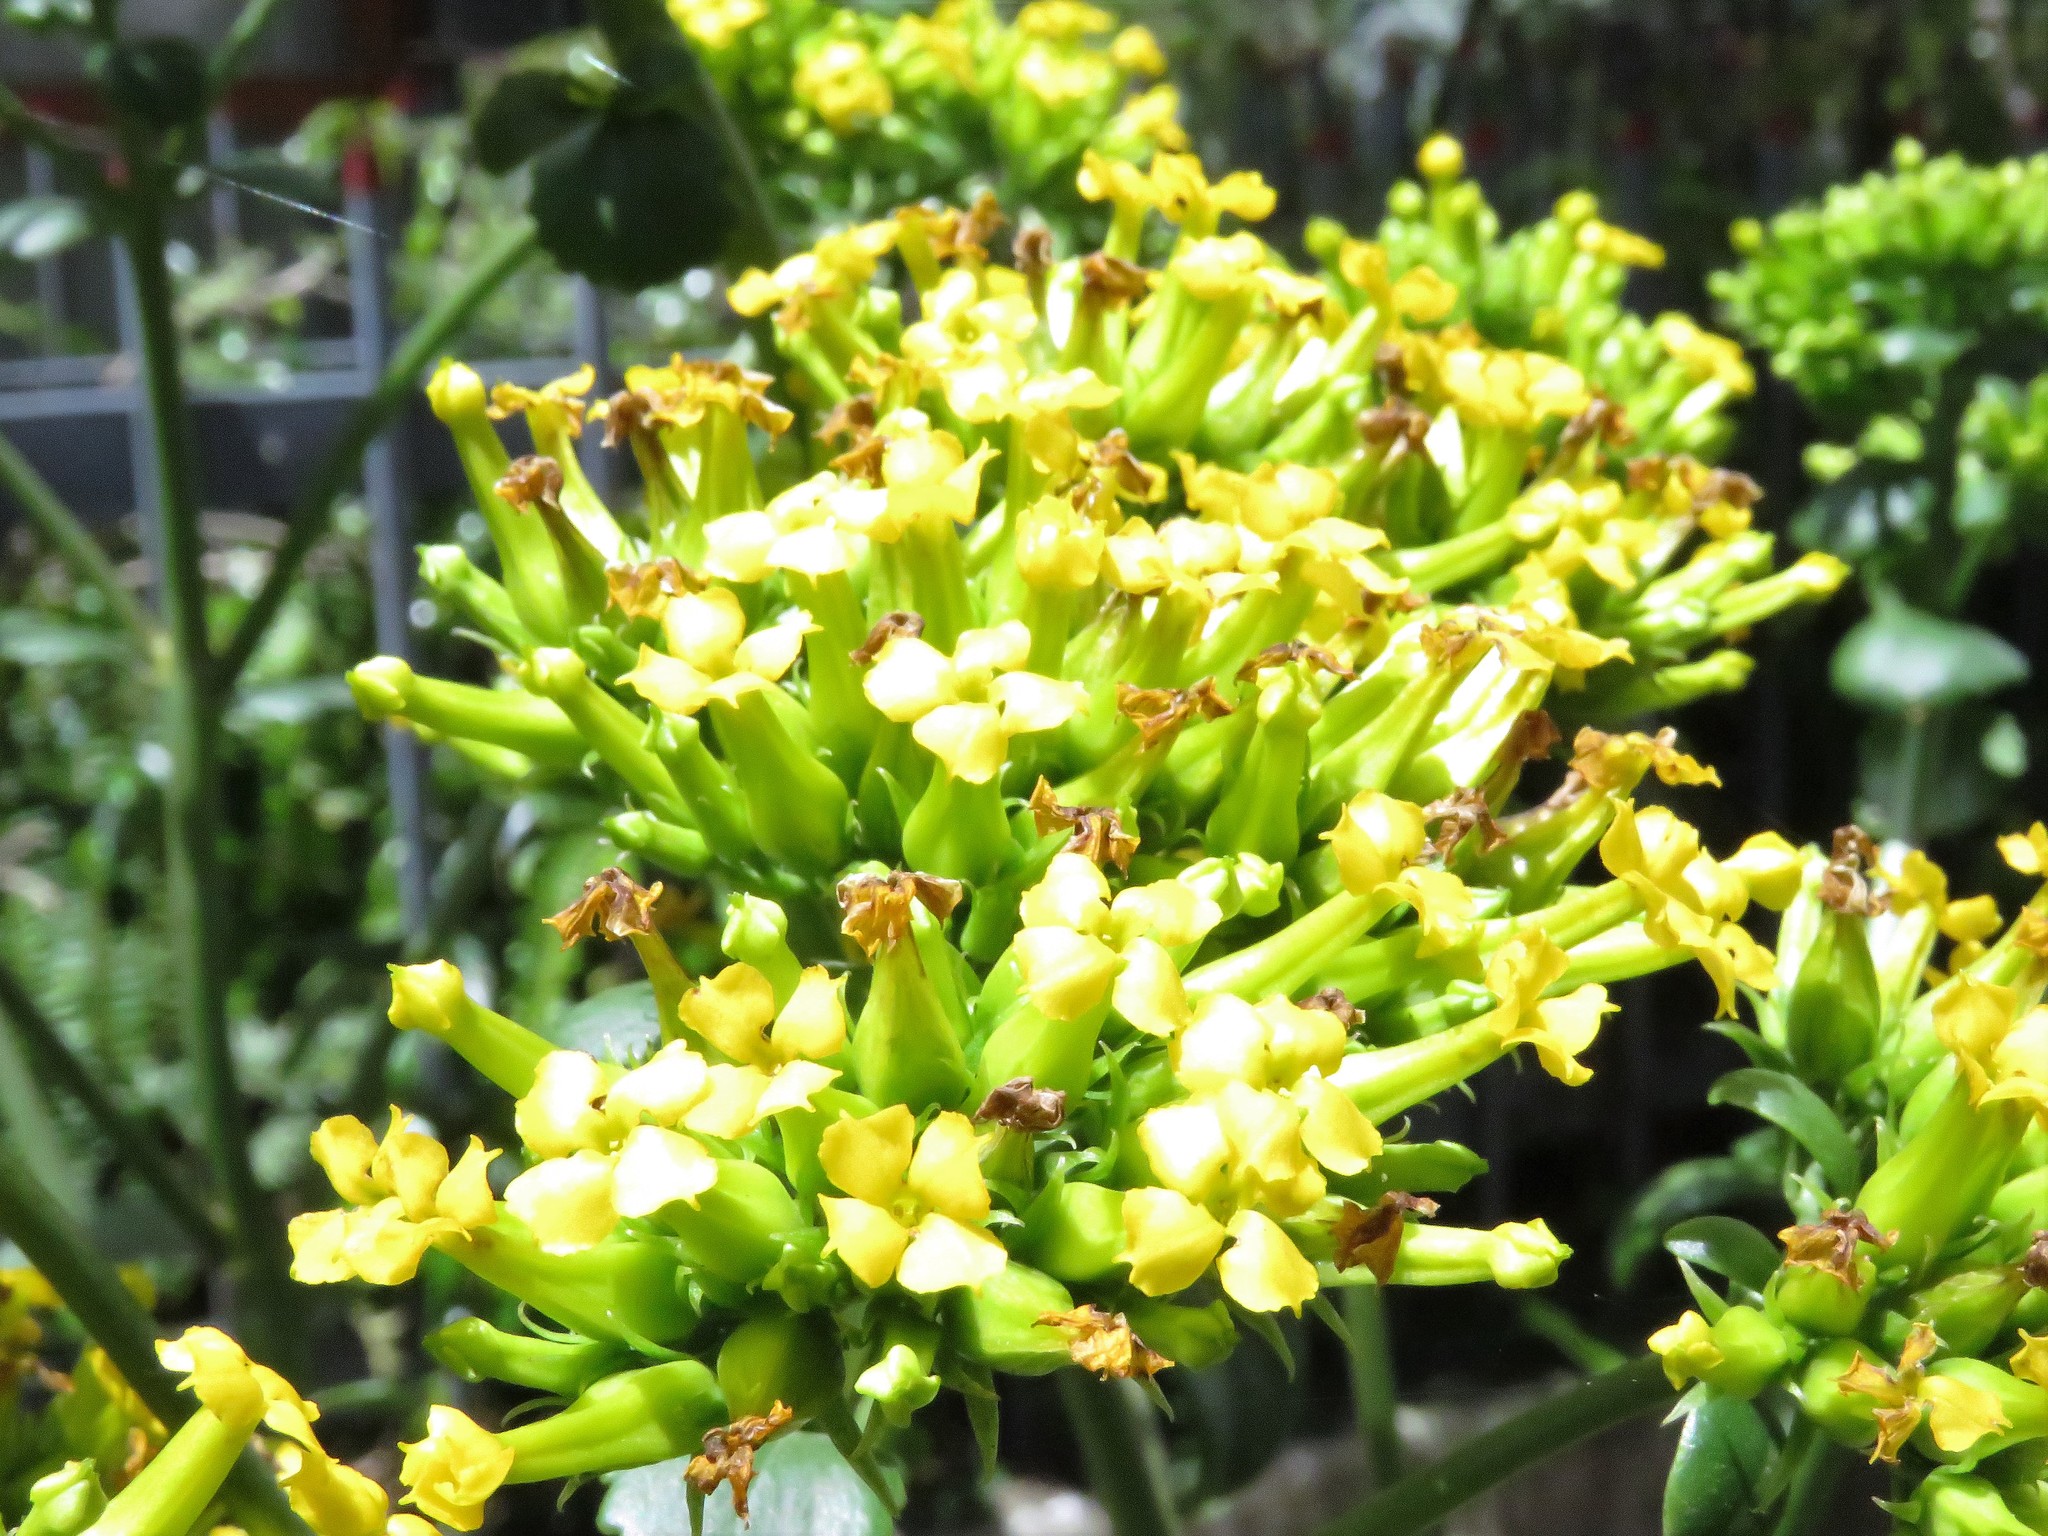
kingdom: Plantae
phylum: Tracheophyta
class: Magnoliopsida
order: Saxifragales
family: Crassulaceae
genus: Kalanchoe
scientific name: Kalanchoe densiflora
